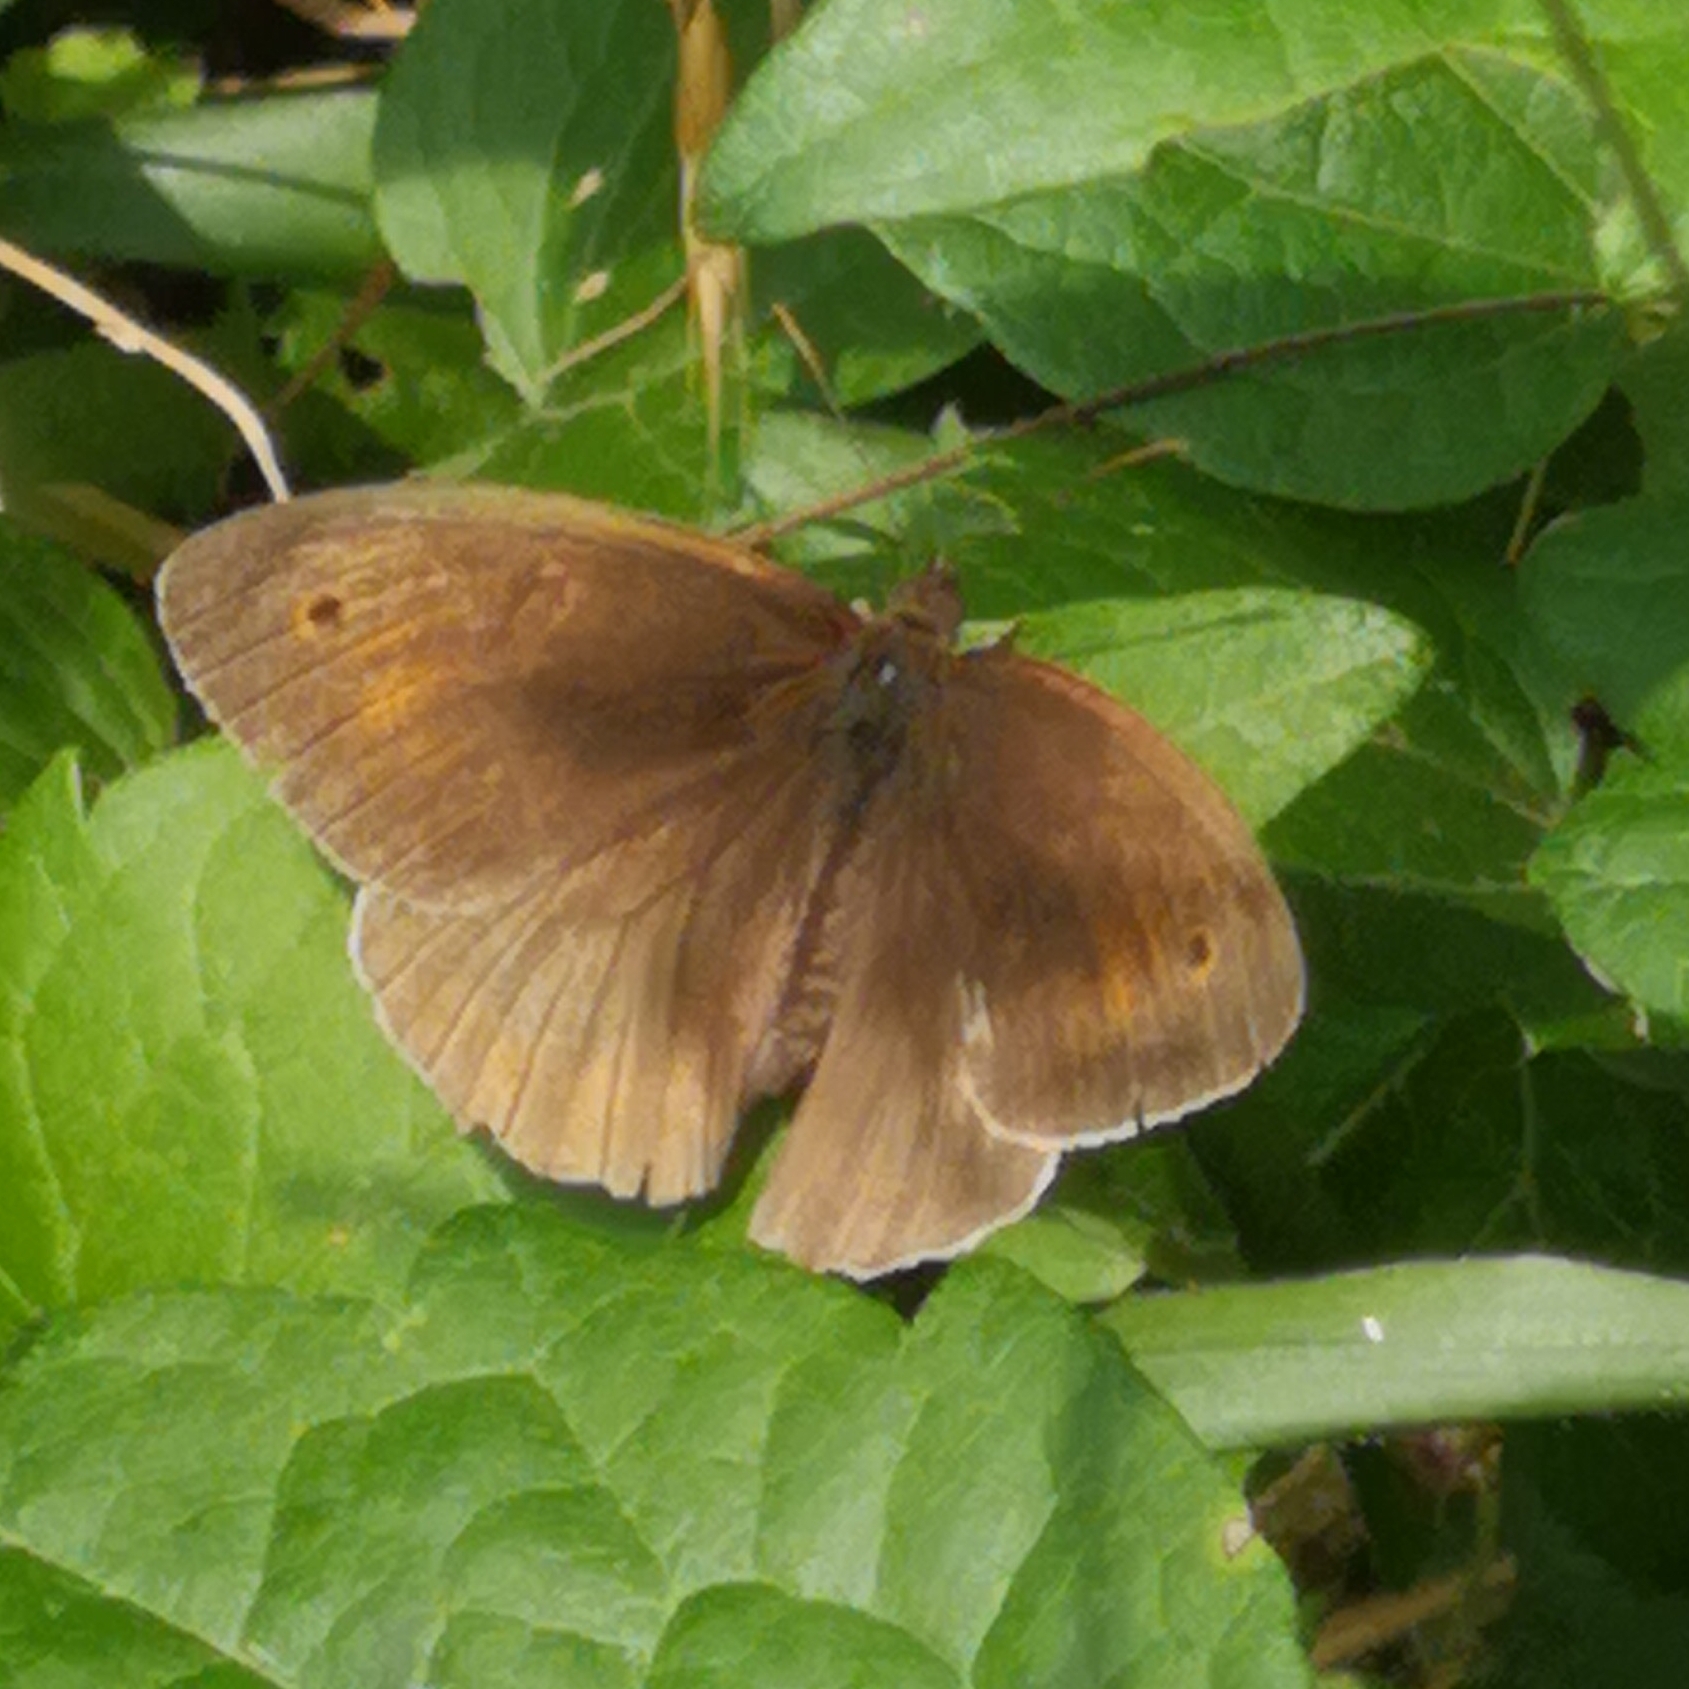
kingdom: Animalia
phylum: Arthropoda
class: Insecta
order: Lepidoptera
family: Nymphalidae
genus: Maniola
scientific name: Maniola jurtina
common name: Meadow brown
